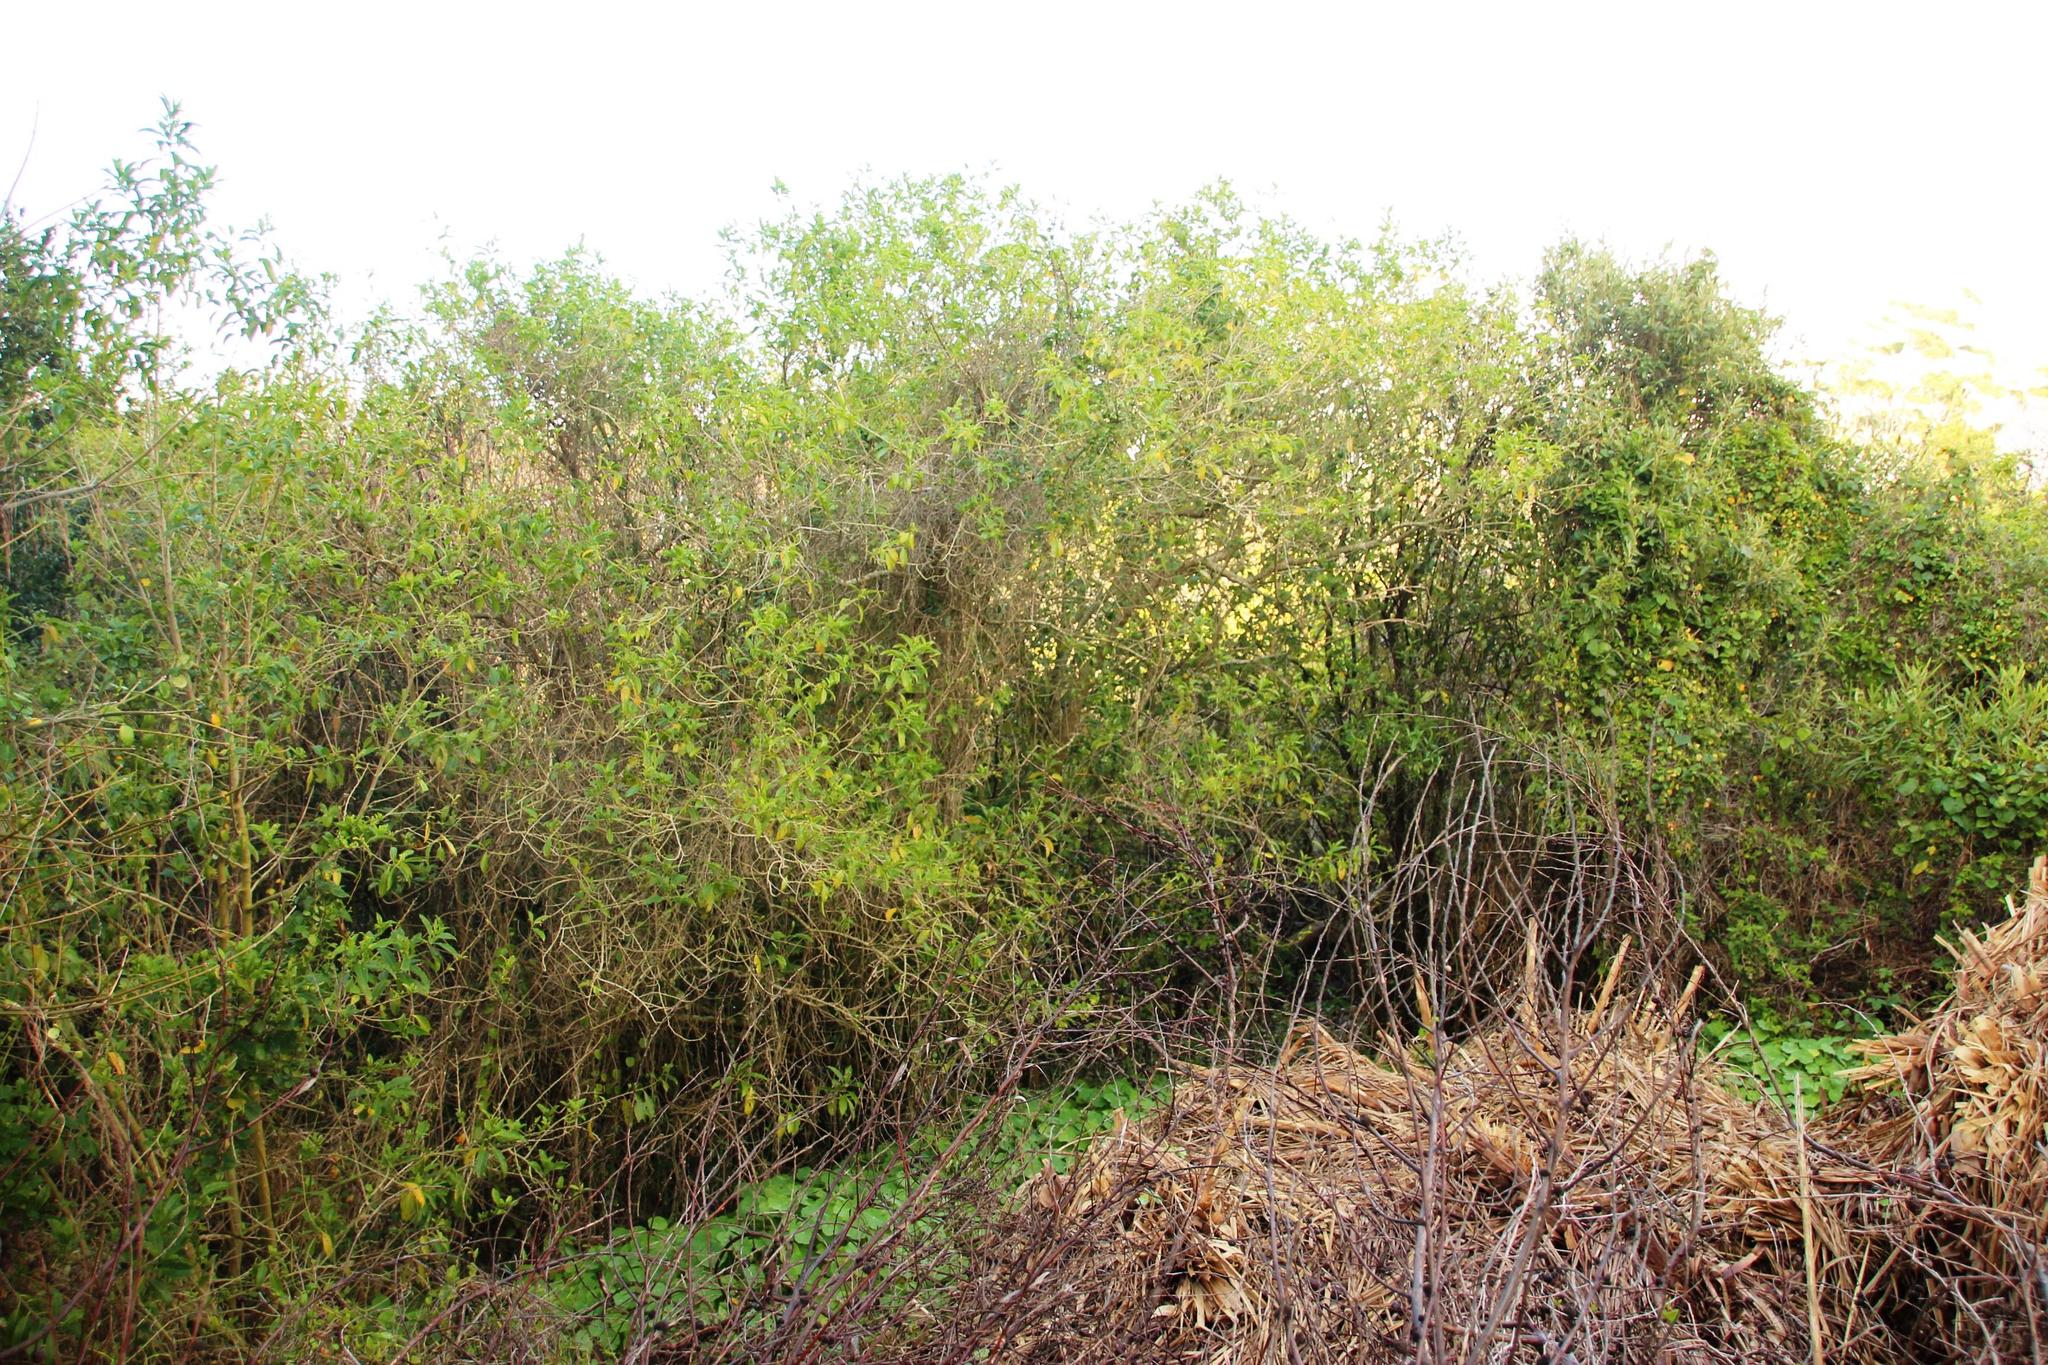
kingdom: Plantae
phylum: Tracheophyta
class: Magnoliopsida
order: Solanales
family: Solanaceae
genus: Cestrum
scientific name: Cestrum laevigatum
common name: Inkberry
